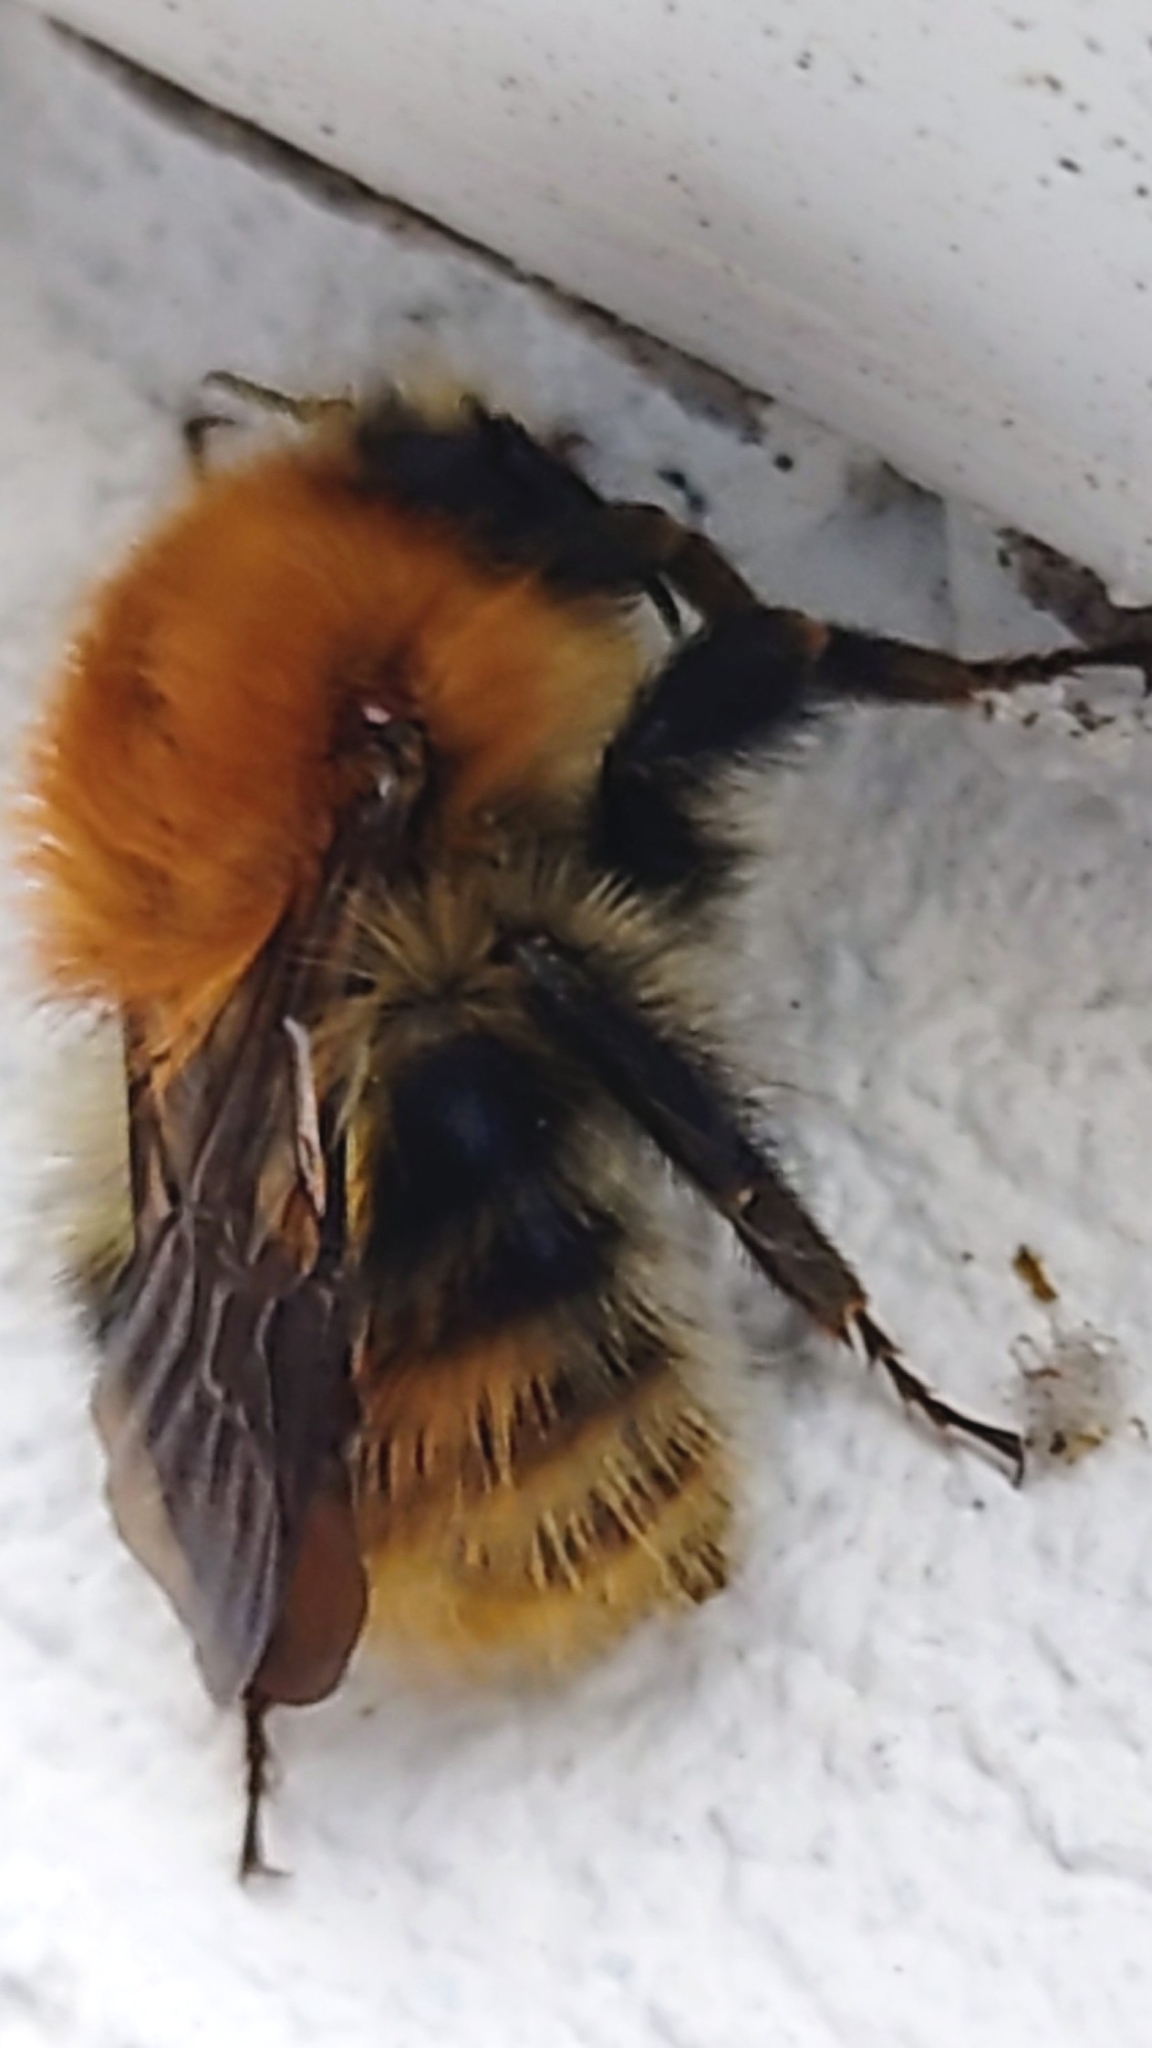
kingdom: Animalia
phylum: Arthropoda
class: Insecta
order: Hymenoptera
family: Apidae
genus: Bombus
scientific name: Bombus pascuorum
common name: Common carder bee
